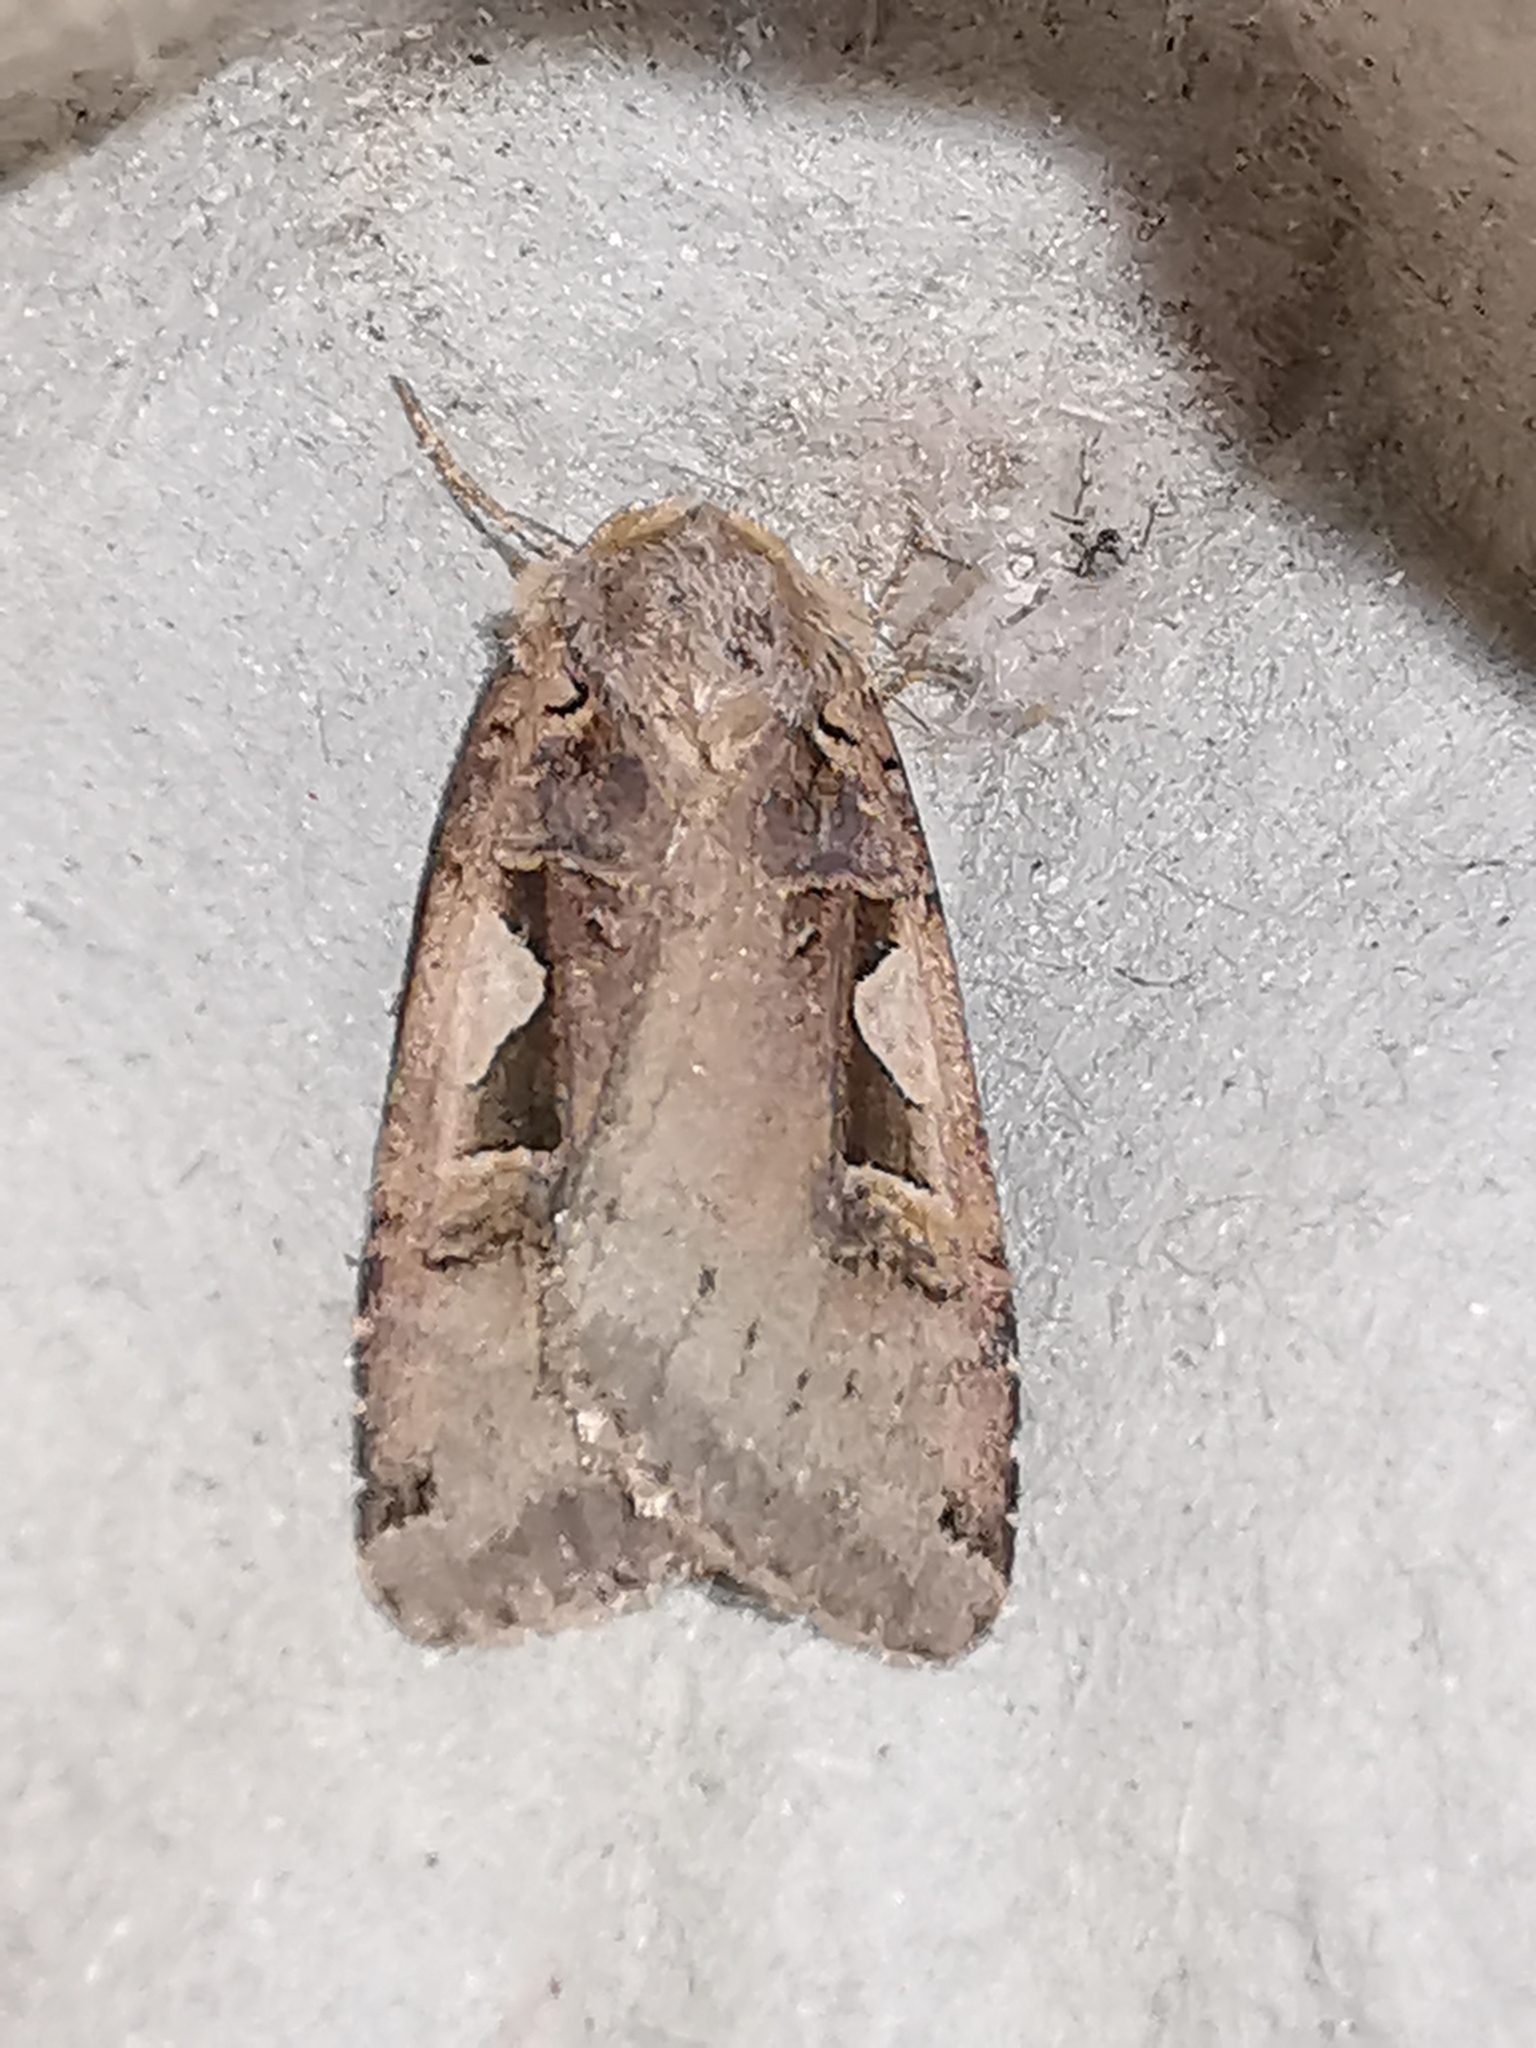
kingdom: Animalia
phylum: Arthropoda
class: Insecta
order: Lepidoptera
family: Noctuidae
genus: Xestia
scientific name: Xestia c-nigrum
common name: Setaceous hebrew character
